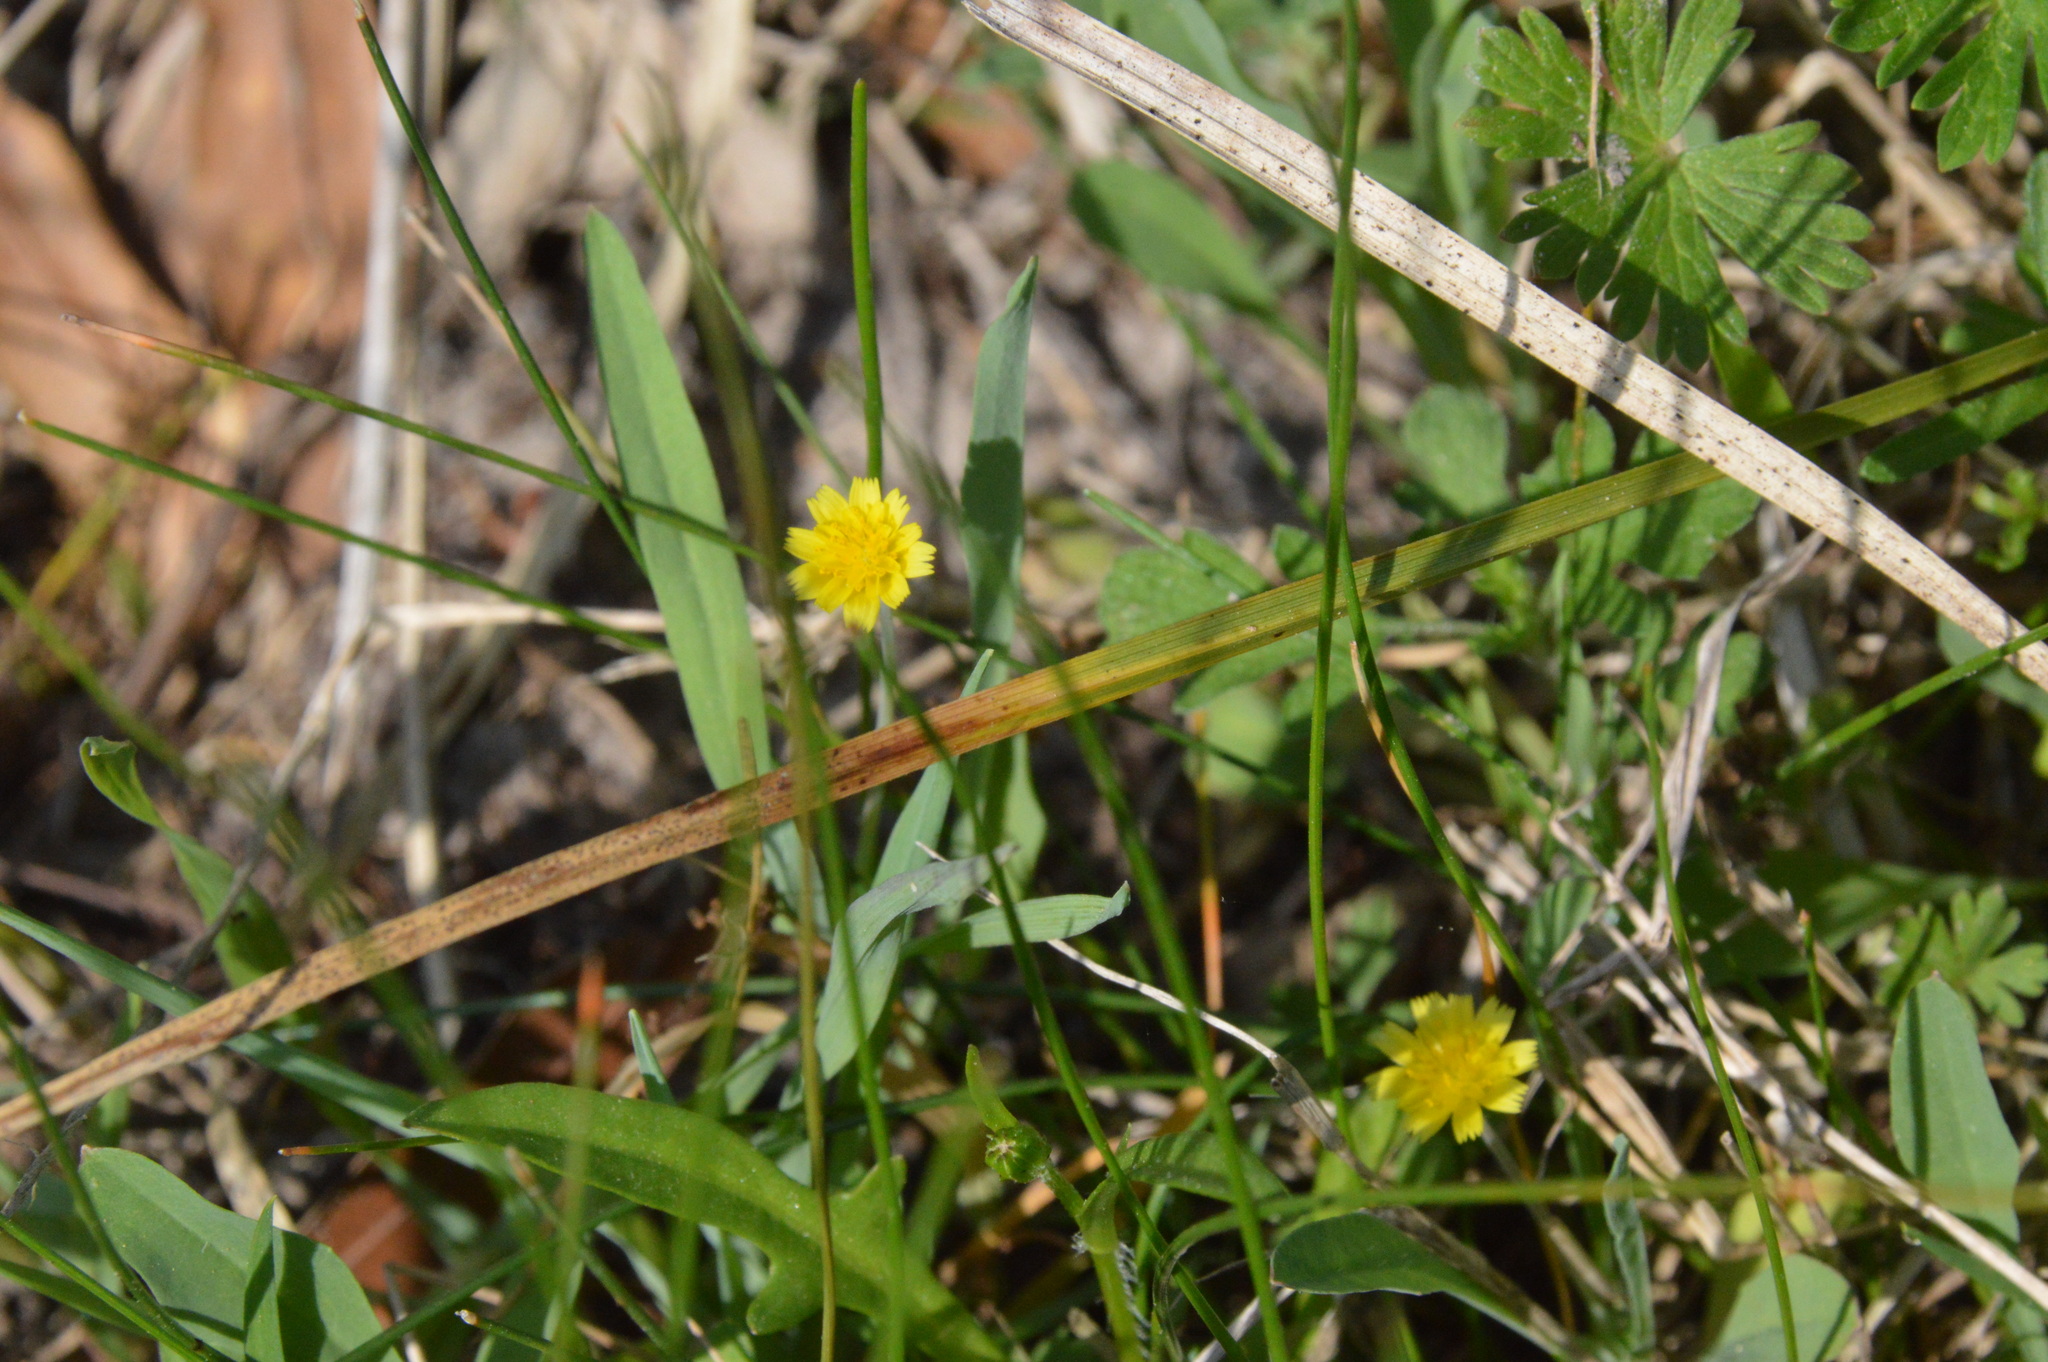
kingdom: Plantae
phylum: Tracheophyta
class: Magnoliopsida
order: Asterales
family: Asteraceae
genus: Krigia
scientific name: Krigia cespitosa
